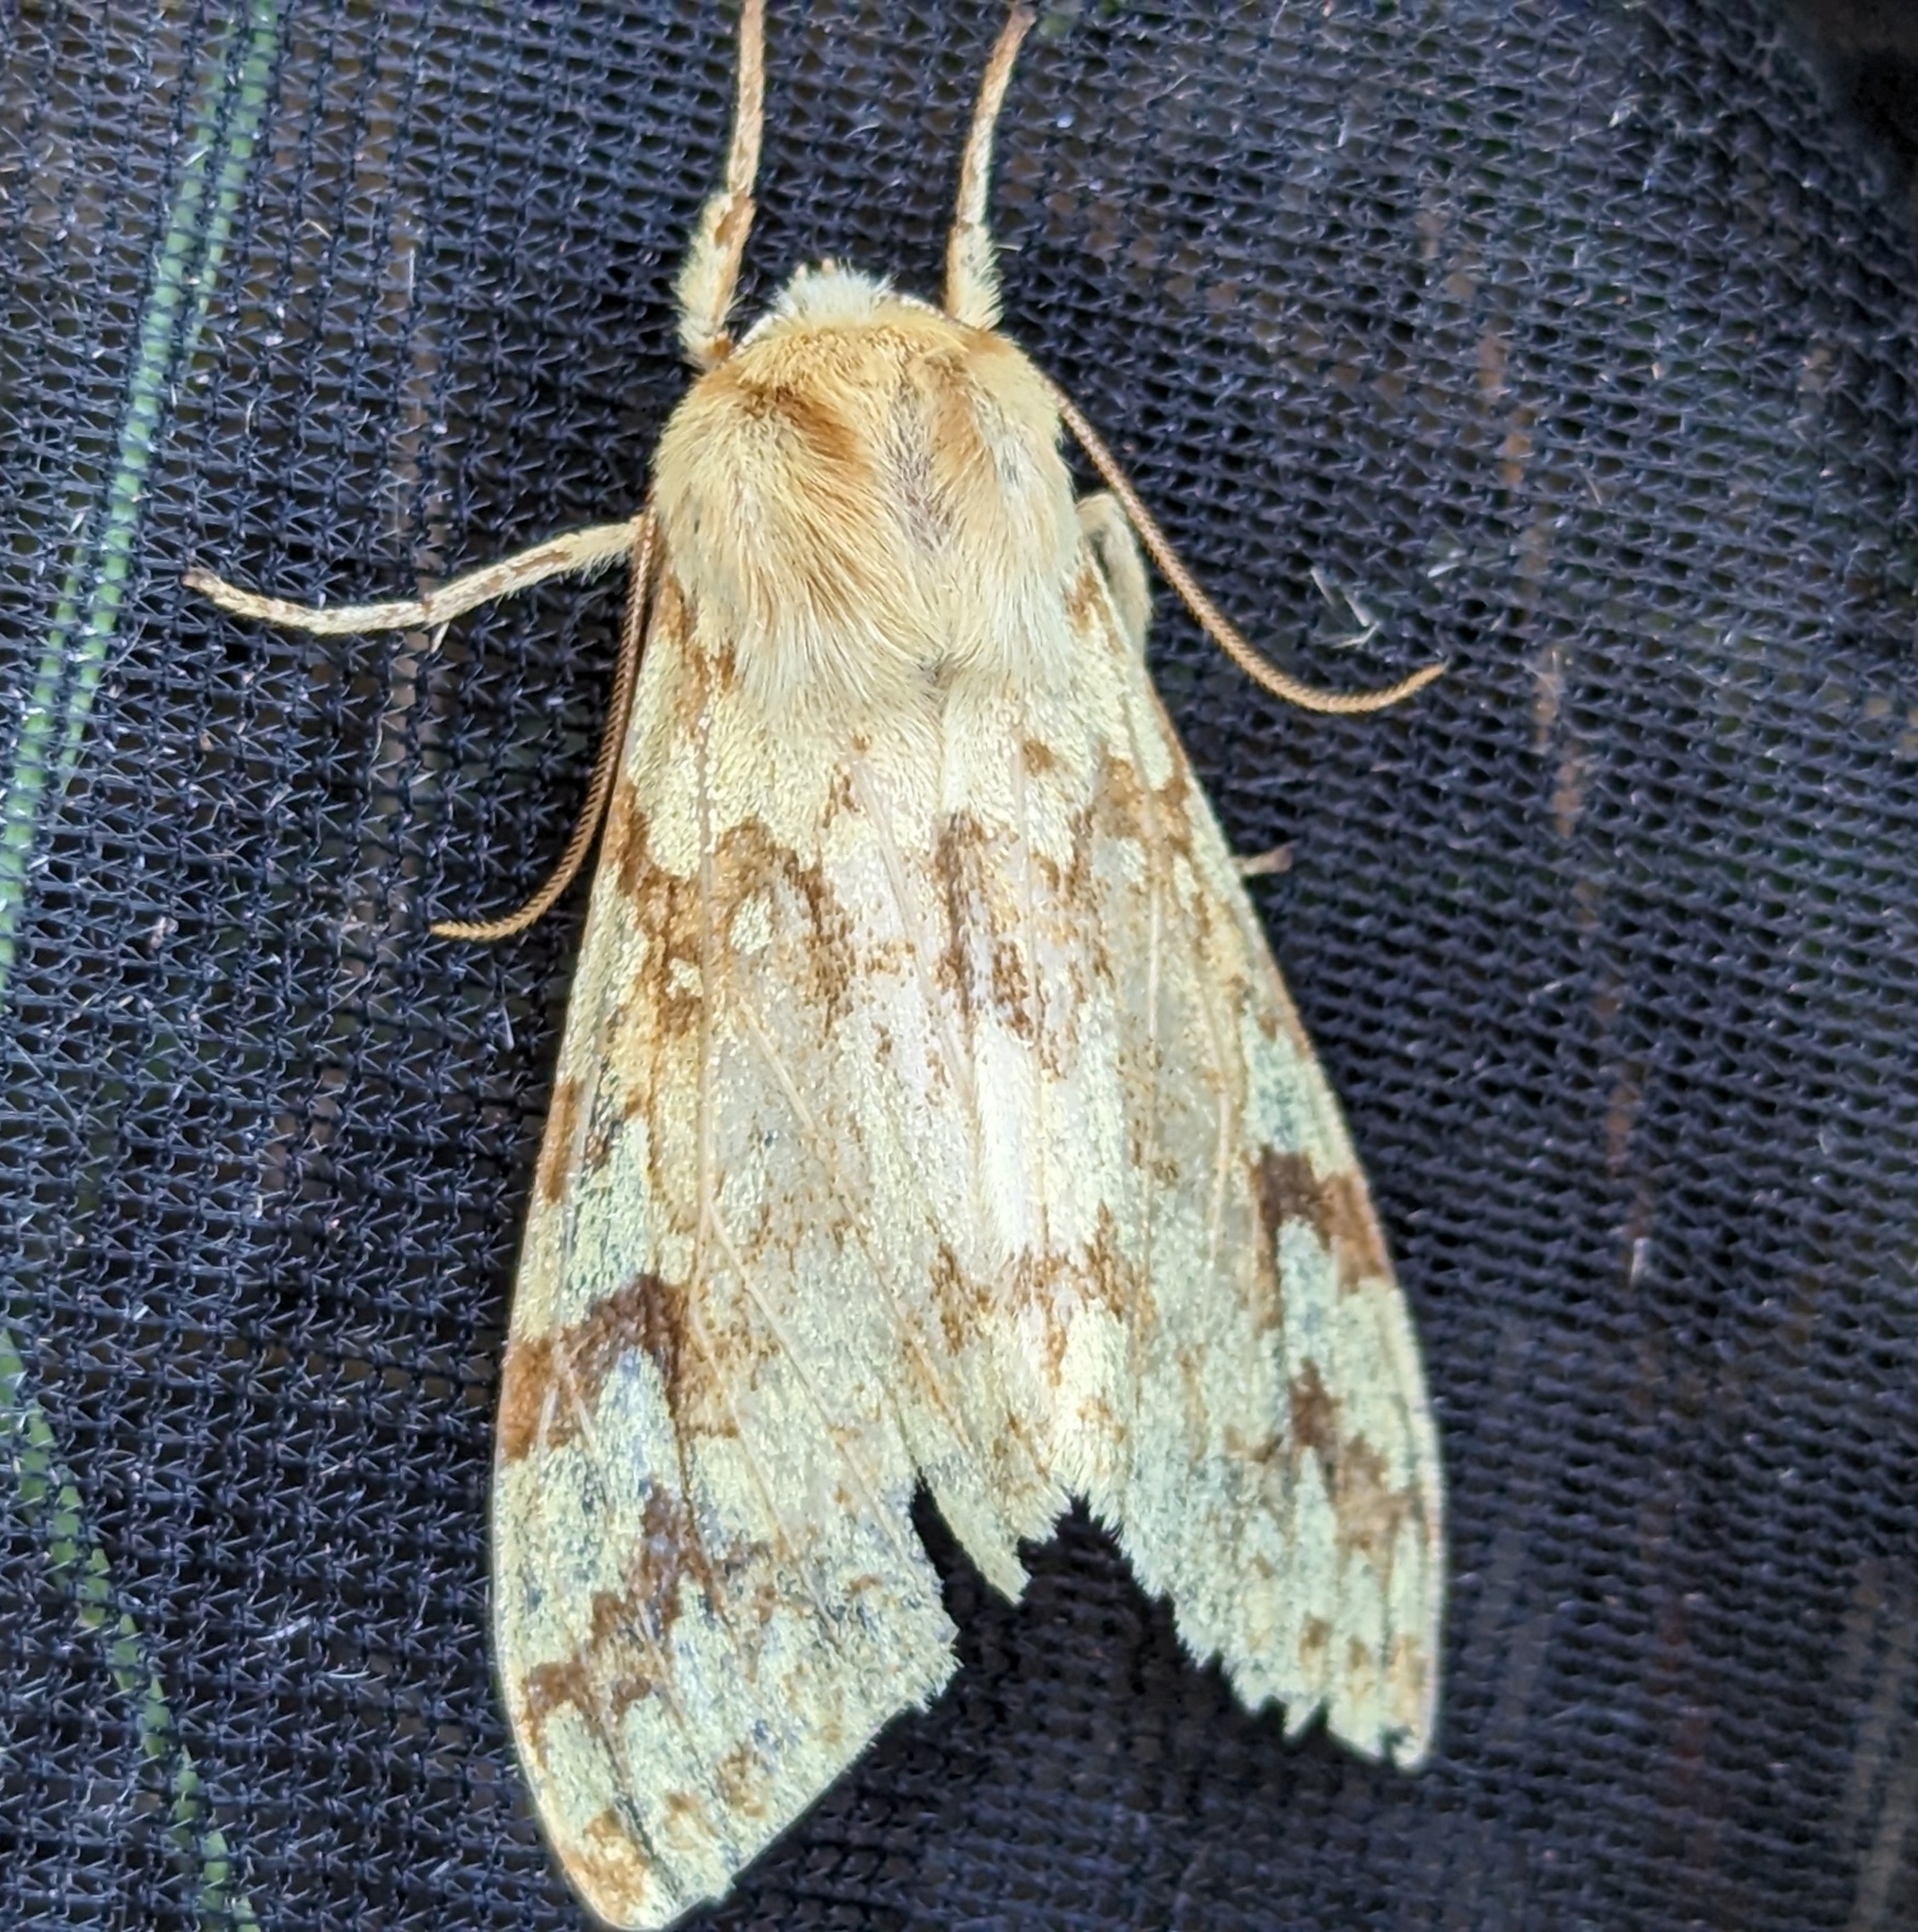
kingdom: Animalia
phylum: Arthropoda
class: Insecta
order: Lepidoptera
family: Erebidae
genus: Lophocampa
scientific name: Lophocampa maculata
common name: Spotted tussock moth
